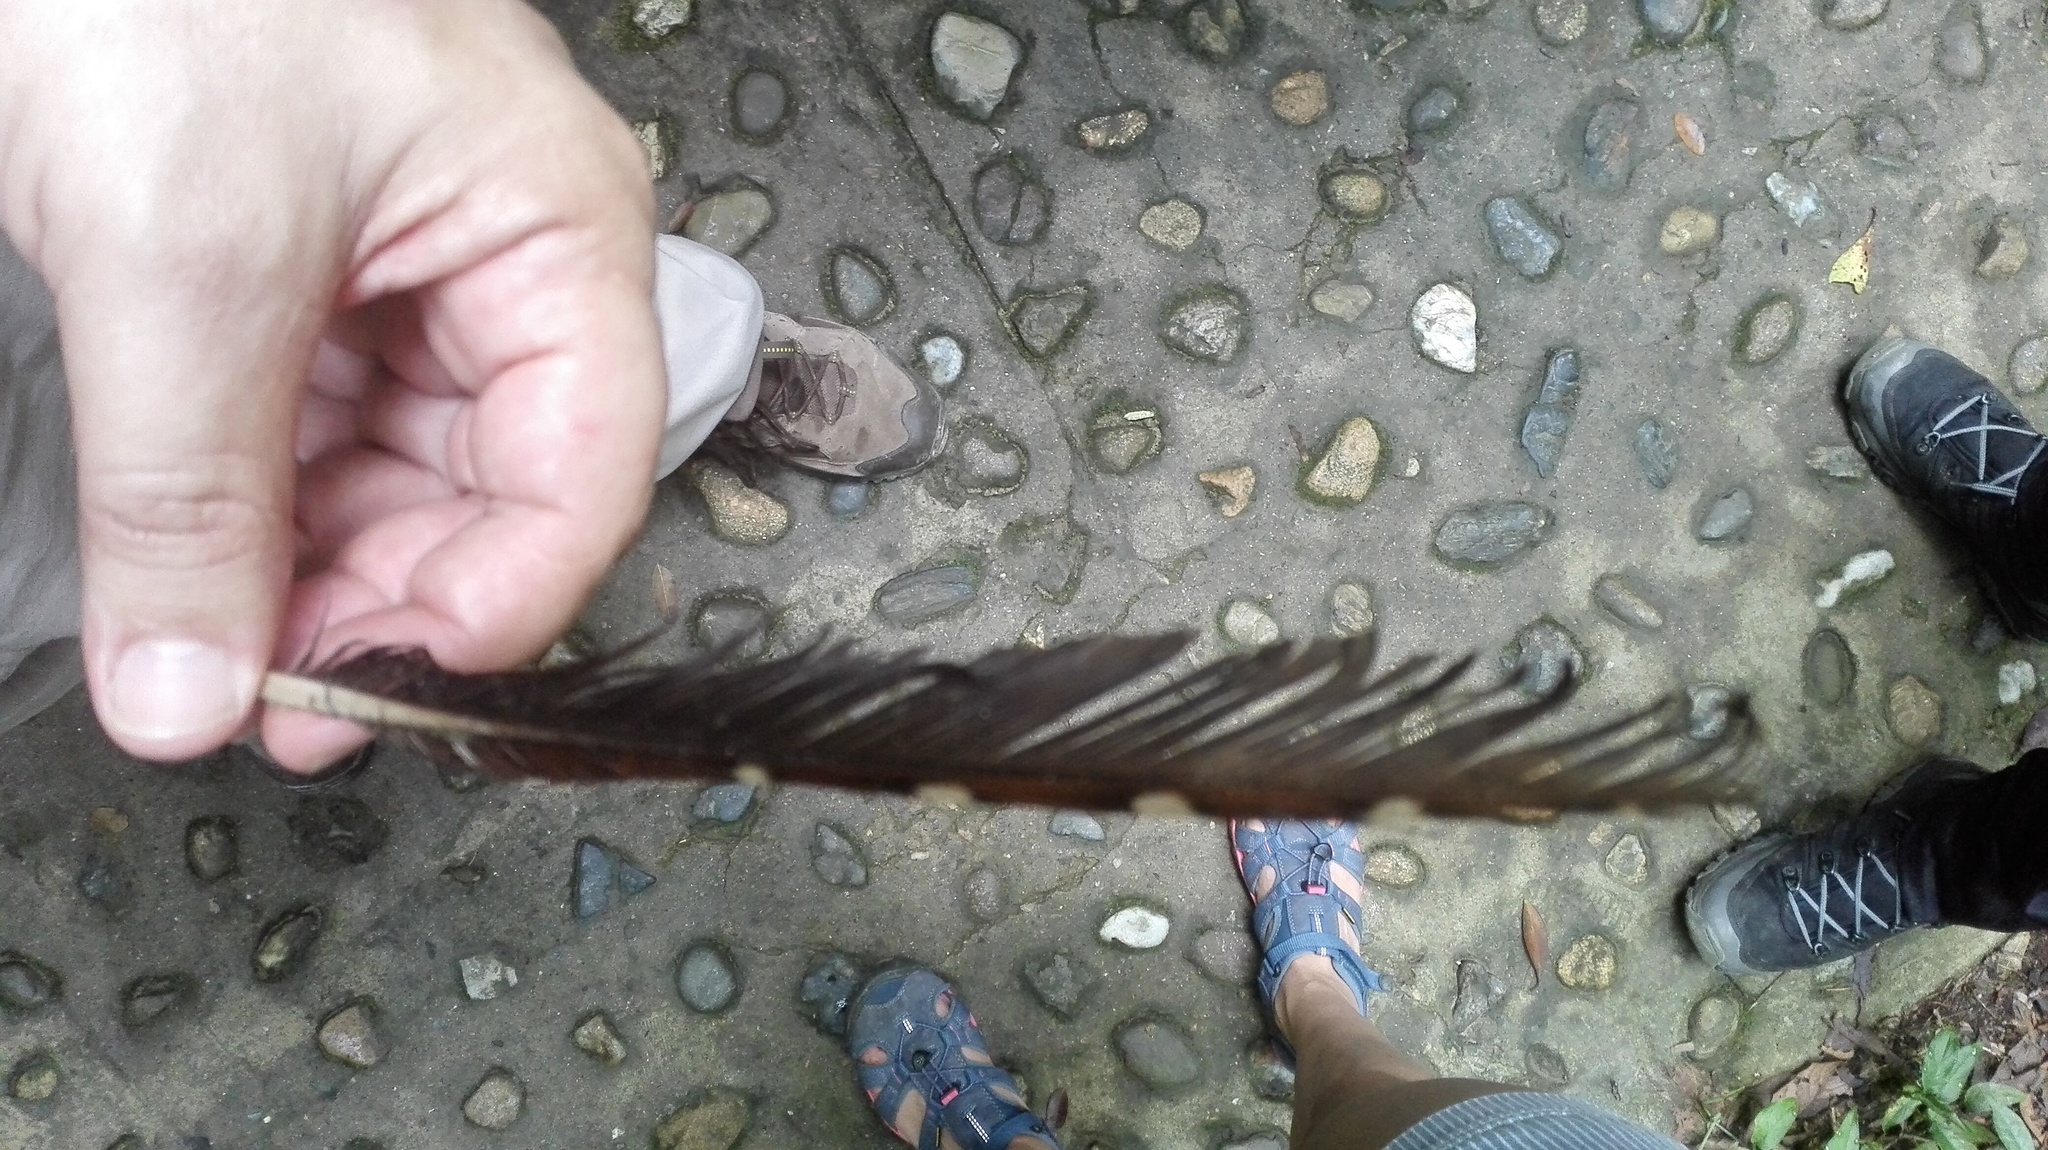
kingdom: Animalia
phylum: Chordata
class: Aves
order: Steatornithiformes
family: Steatornithidae
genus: Steatornis
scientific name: Steatornis caripensis
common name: Oilbird
